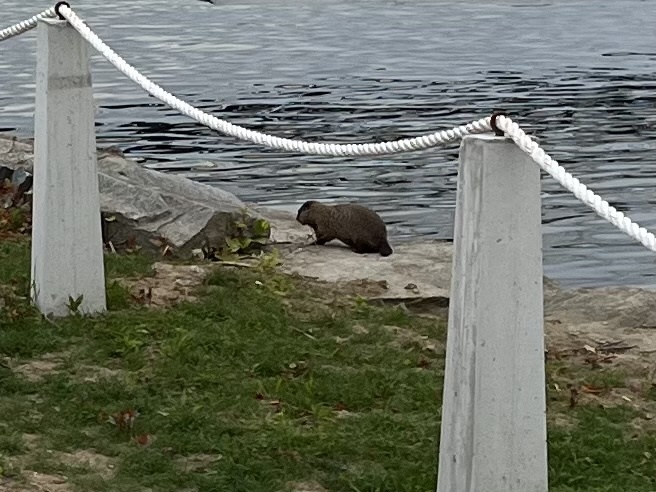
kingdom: Animalia
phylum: Chordata
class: Mammalia
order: Rodentia
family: Sciuridae
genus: Marmota
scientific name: Marmota monax
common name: Groundhog
